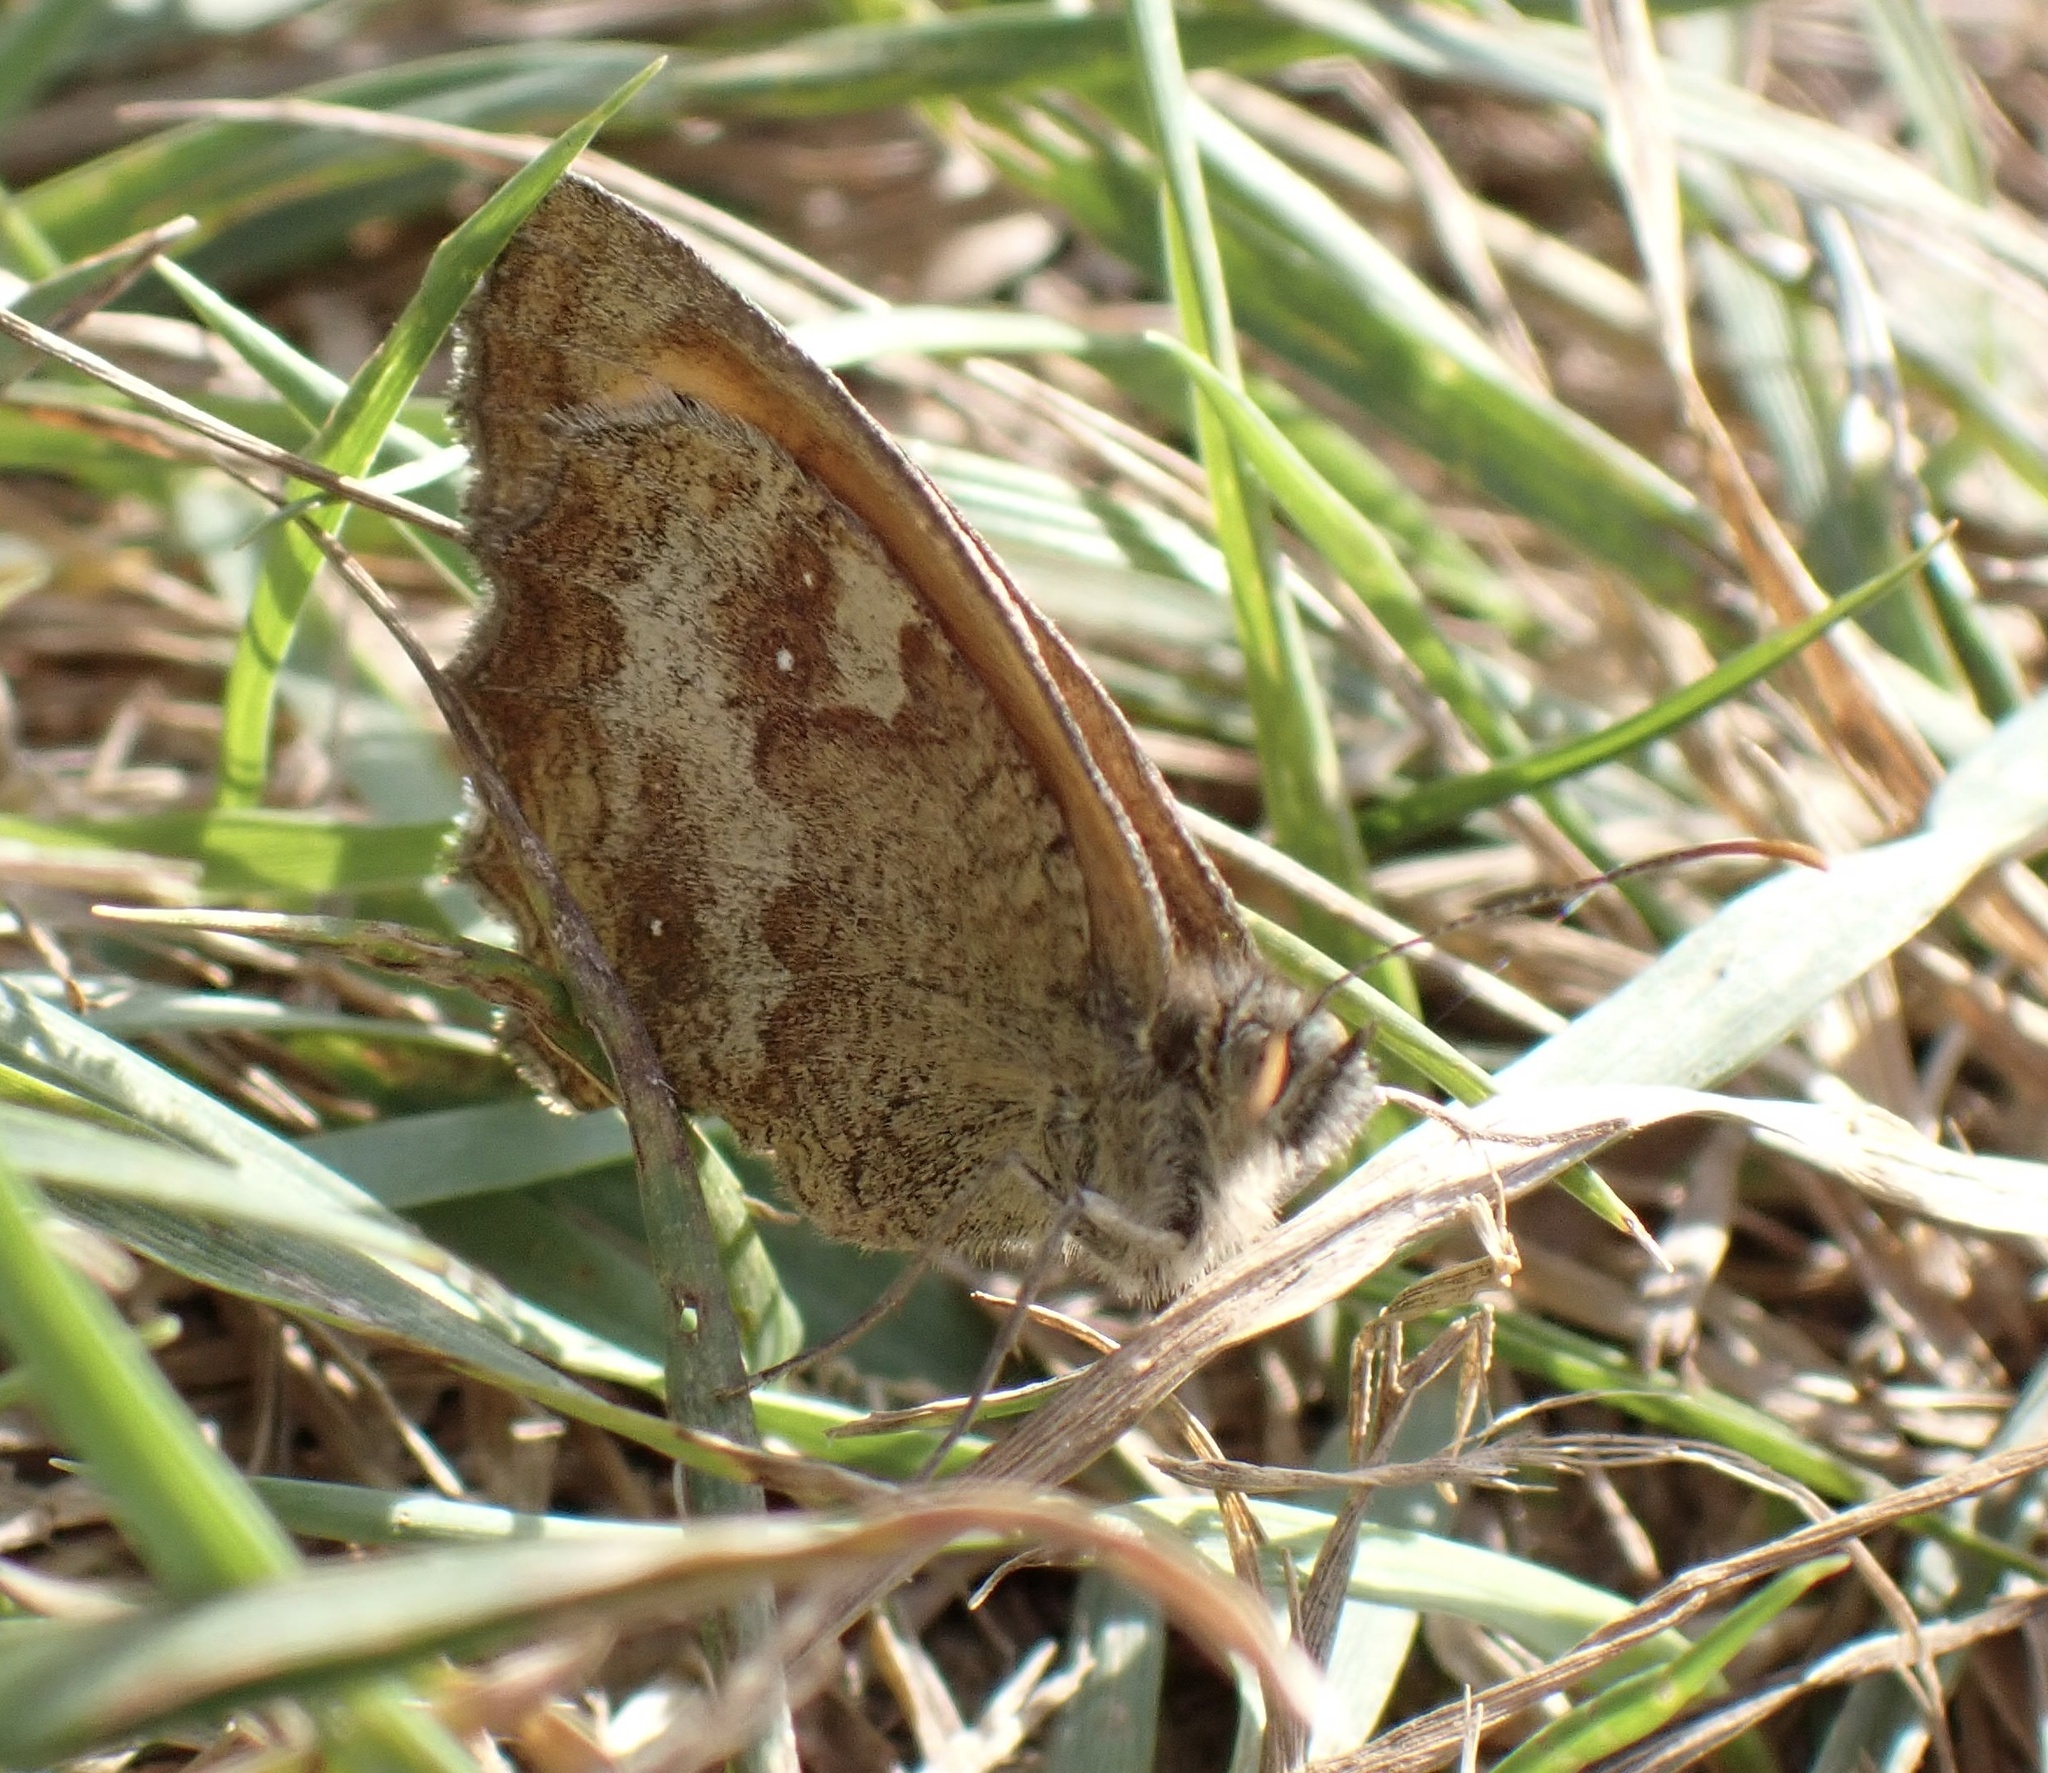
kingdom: Animalia
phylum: Arthropoda
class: Insecta
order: Lepidoptera
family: Nymphalidae
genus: Pyronia
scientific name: Pyronia tithonus
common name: Gatekeeper
